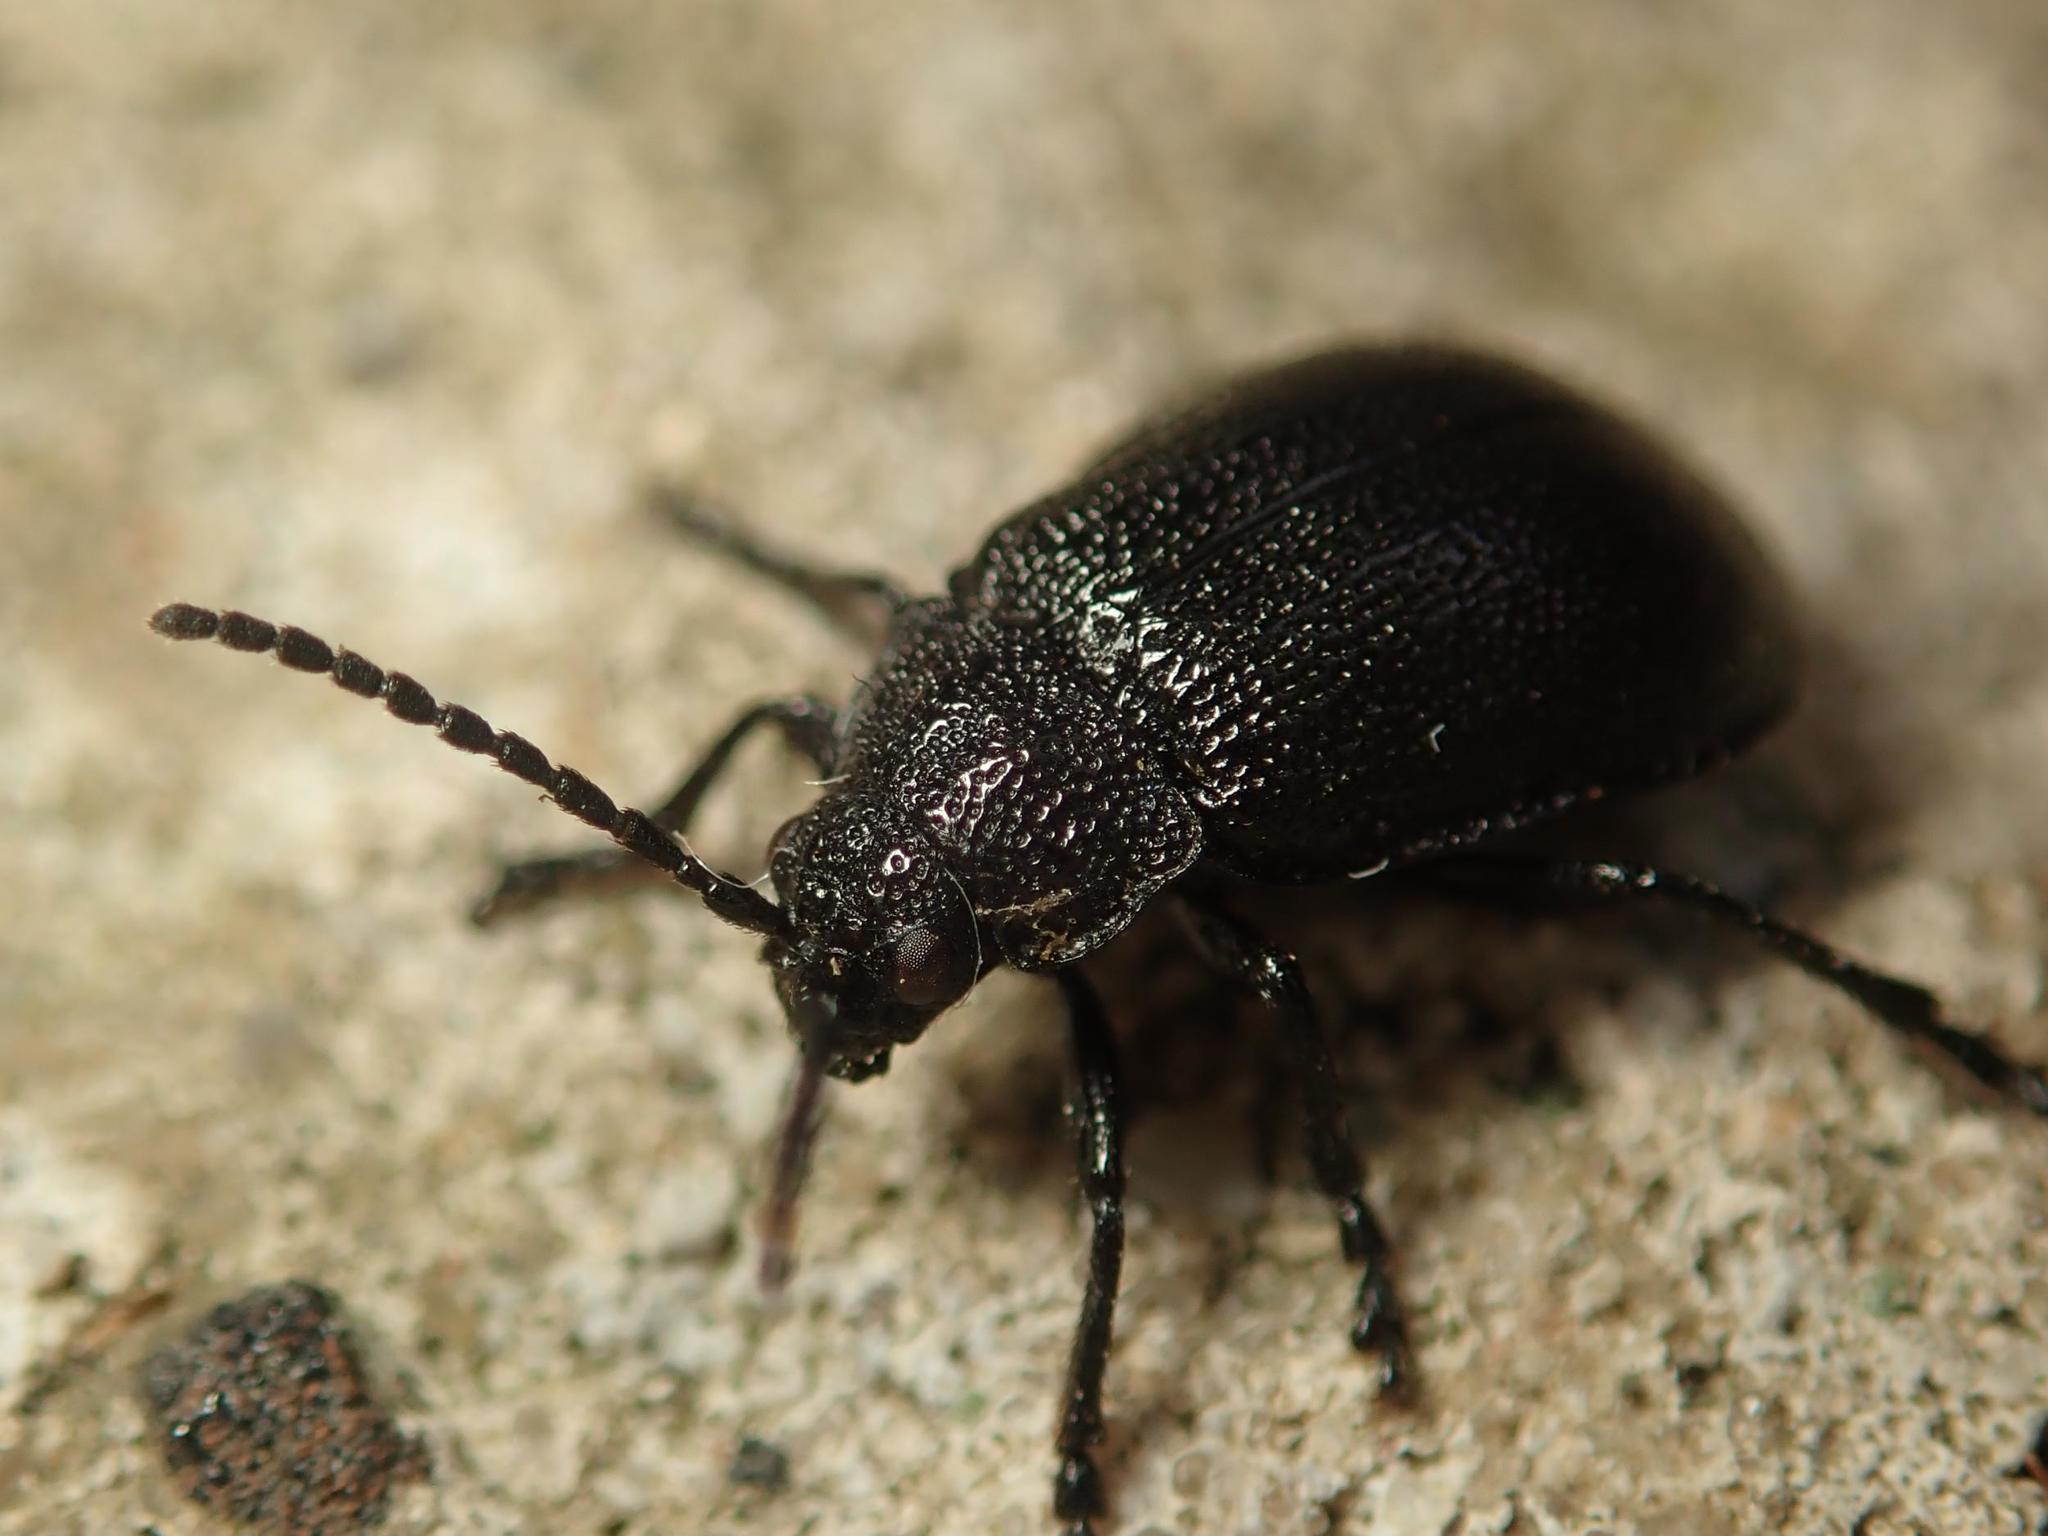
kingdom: Animalia
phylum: Arthropoda
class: Insecta
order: Coleoptera
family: Chrysomelidae
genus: Galeruca
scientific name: Galeruca tanaceti
